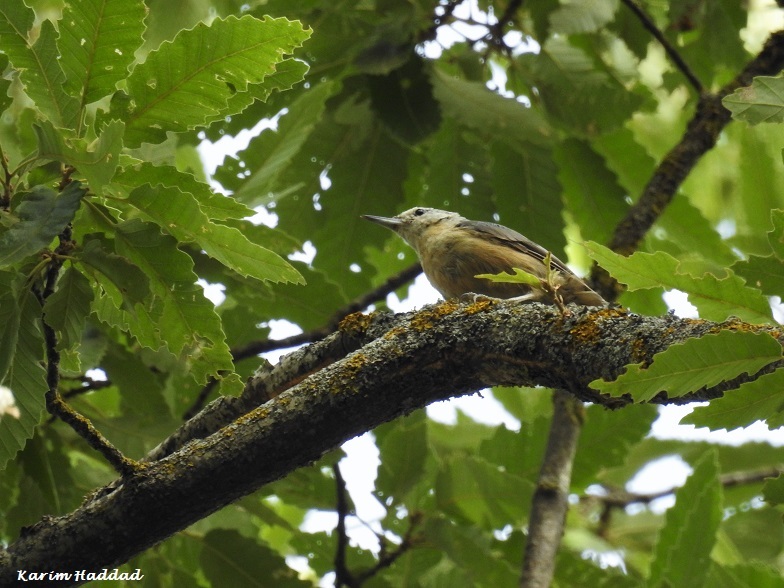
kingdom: Animalia
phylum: Chordata
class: Aves
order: Passeriformes
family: Sittidae
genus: Sitta
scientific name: Sitta ledanti
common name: Algerian nuthatch
